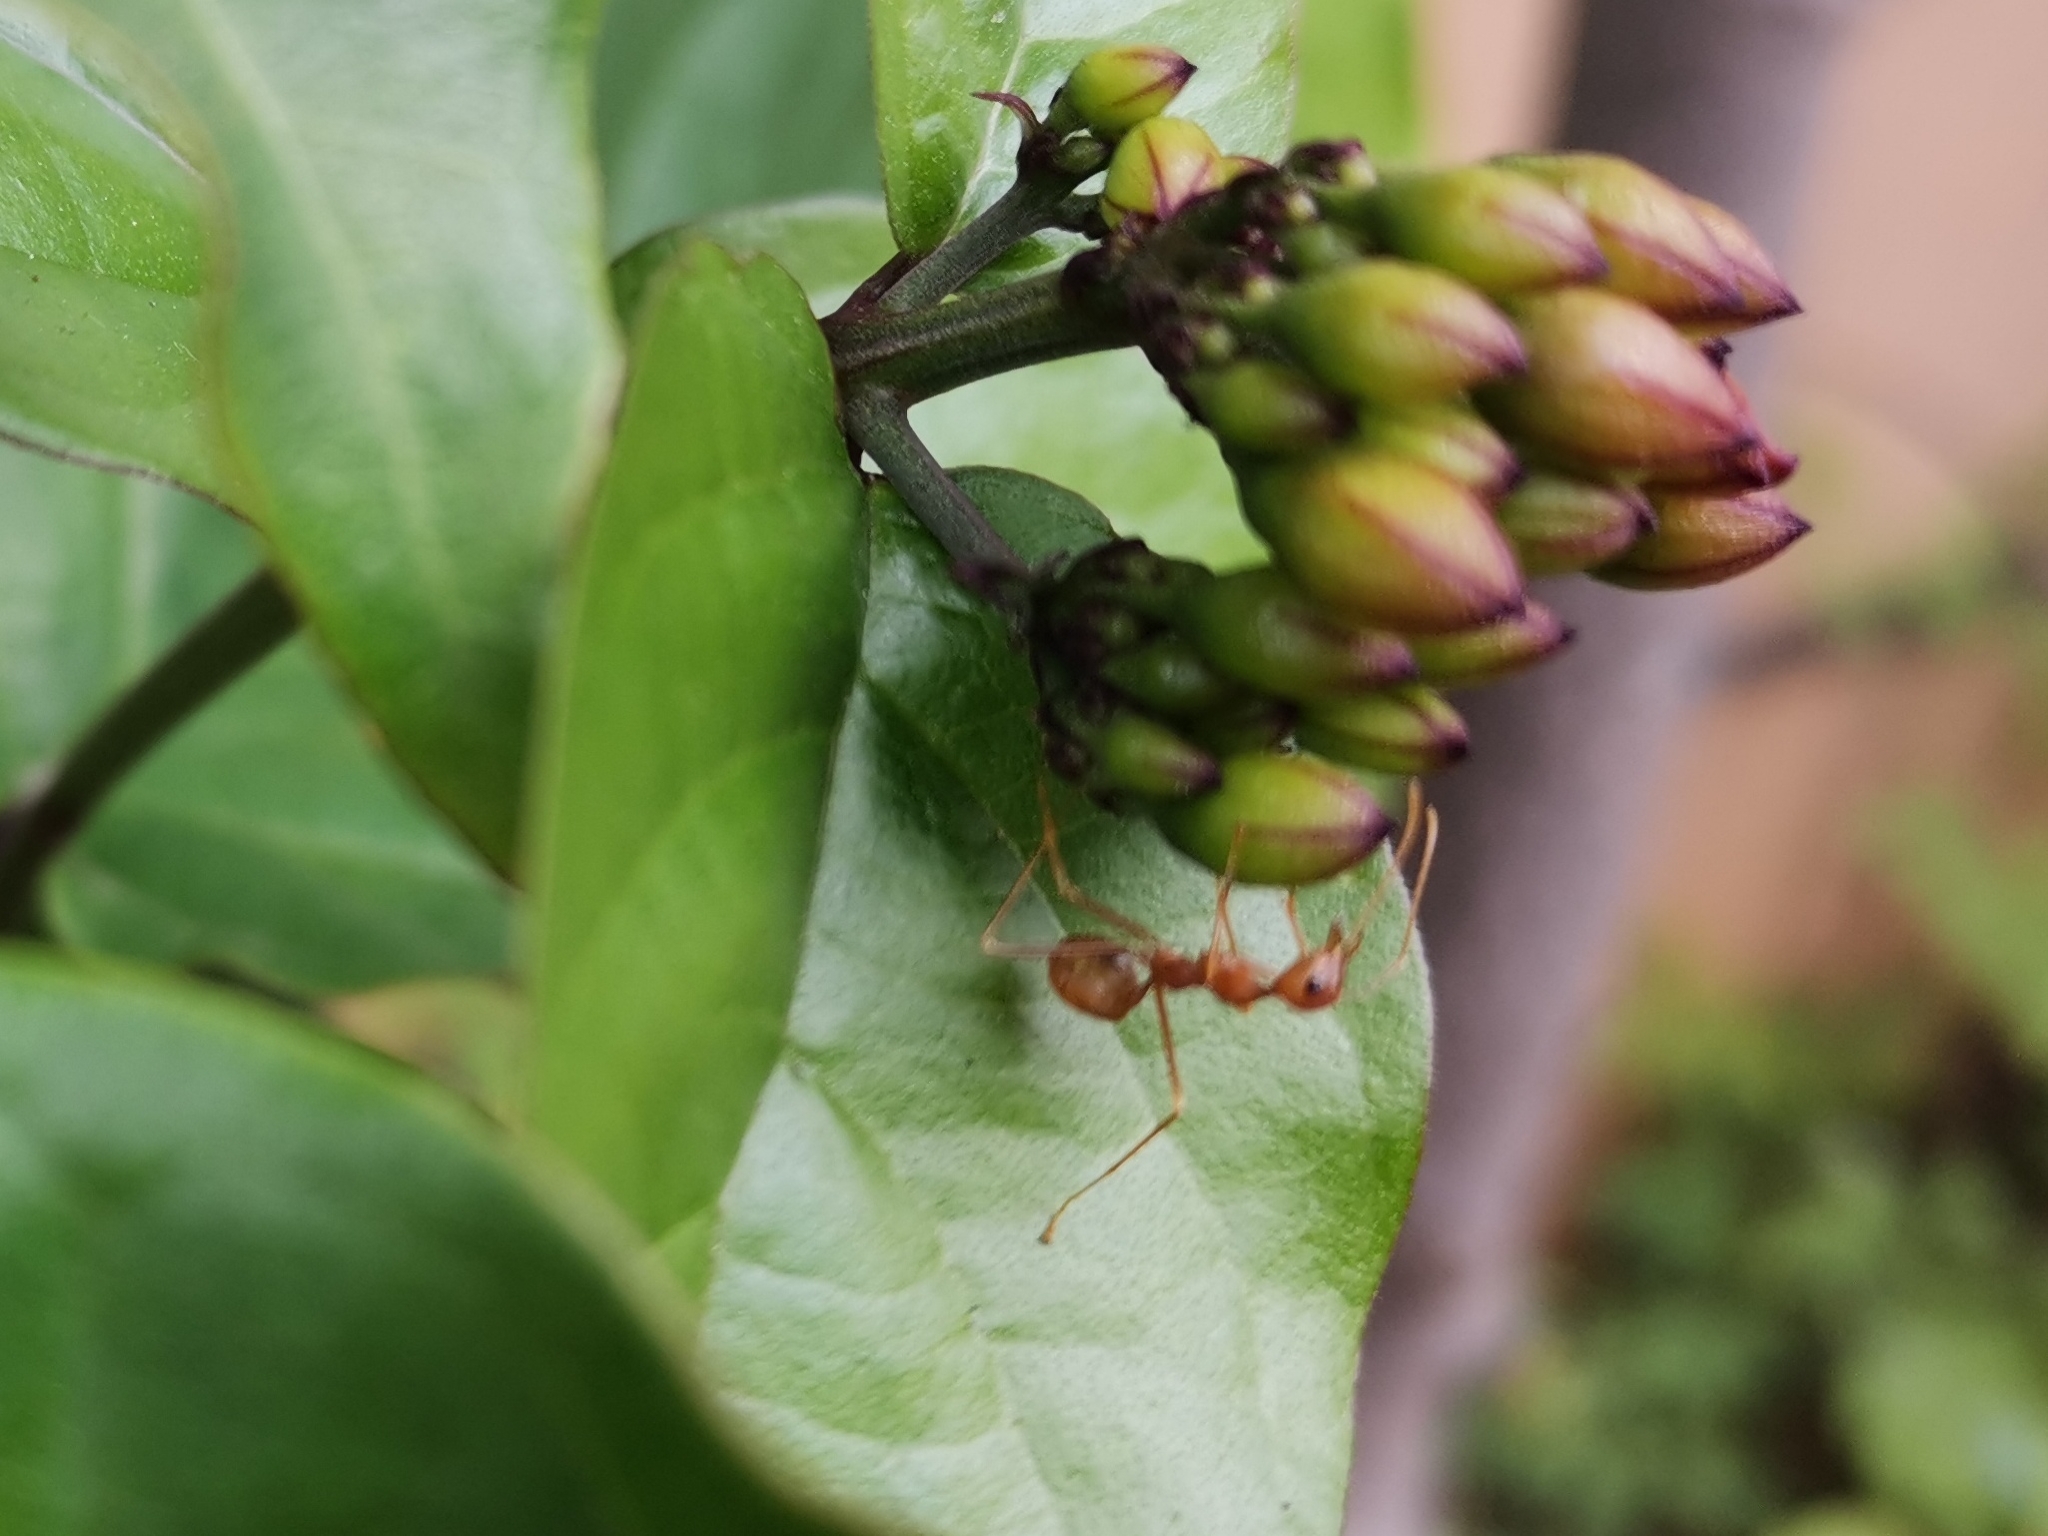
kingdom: Animalia
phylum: Arthropoda
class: Insecta
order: Hymenoptera
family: Formicidae
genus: Oecophylla
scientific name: Oecophylla smaragdina
